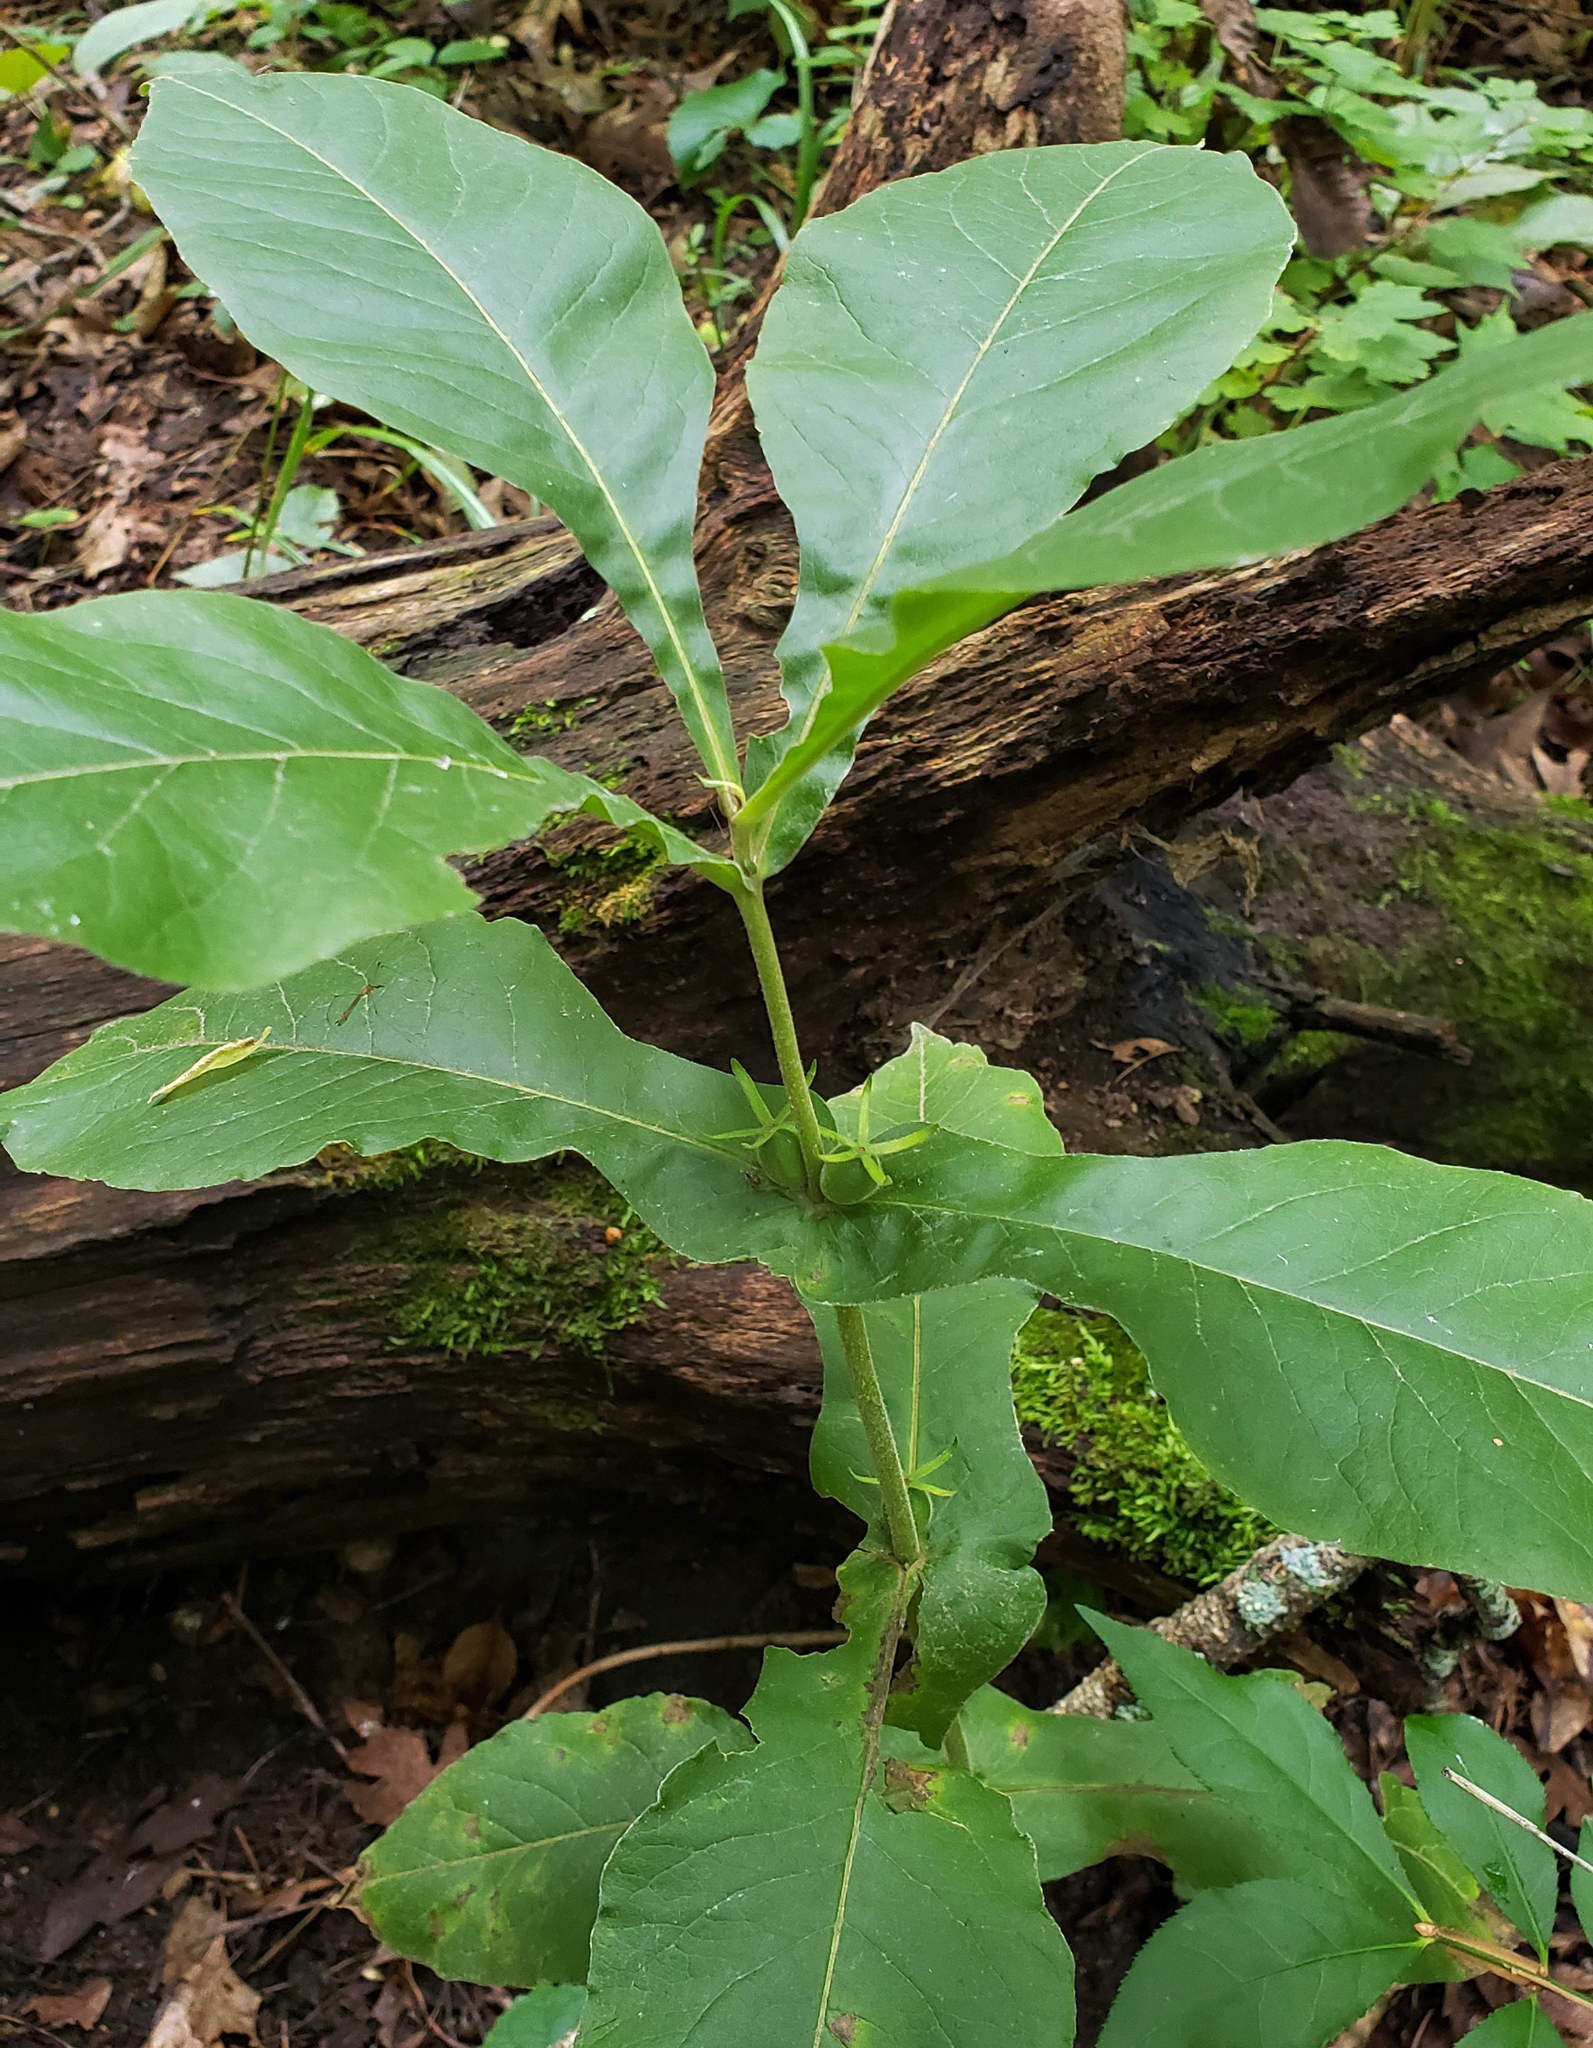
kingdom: Plantae
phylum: Tracheophyta
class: Magnoliopsida
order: Dipsacales
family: Caprifoliaceae
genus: Triosteum
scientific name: Triosteum perfoliatum
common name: Common horse-gentian
